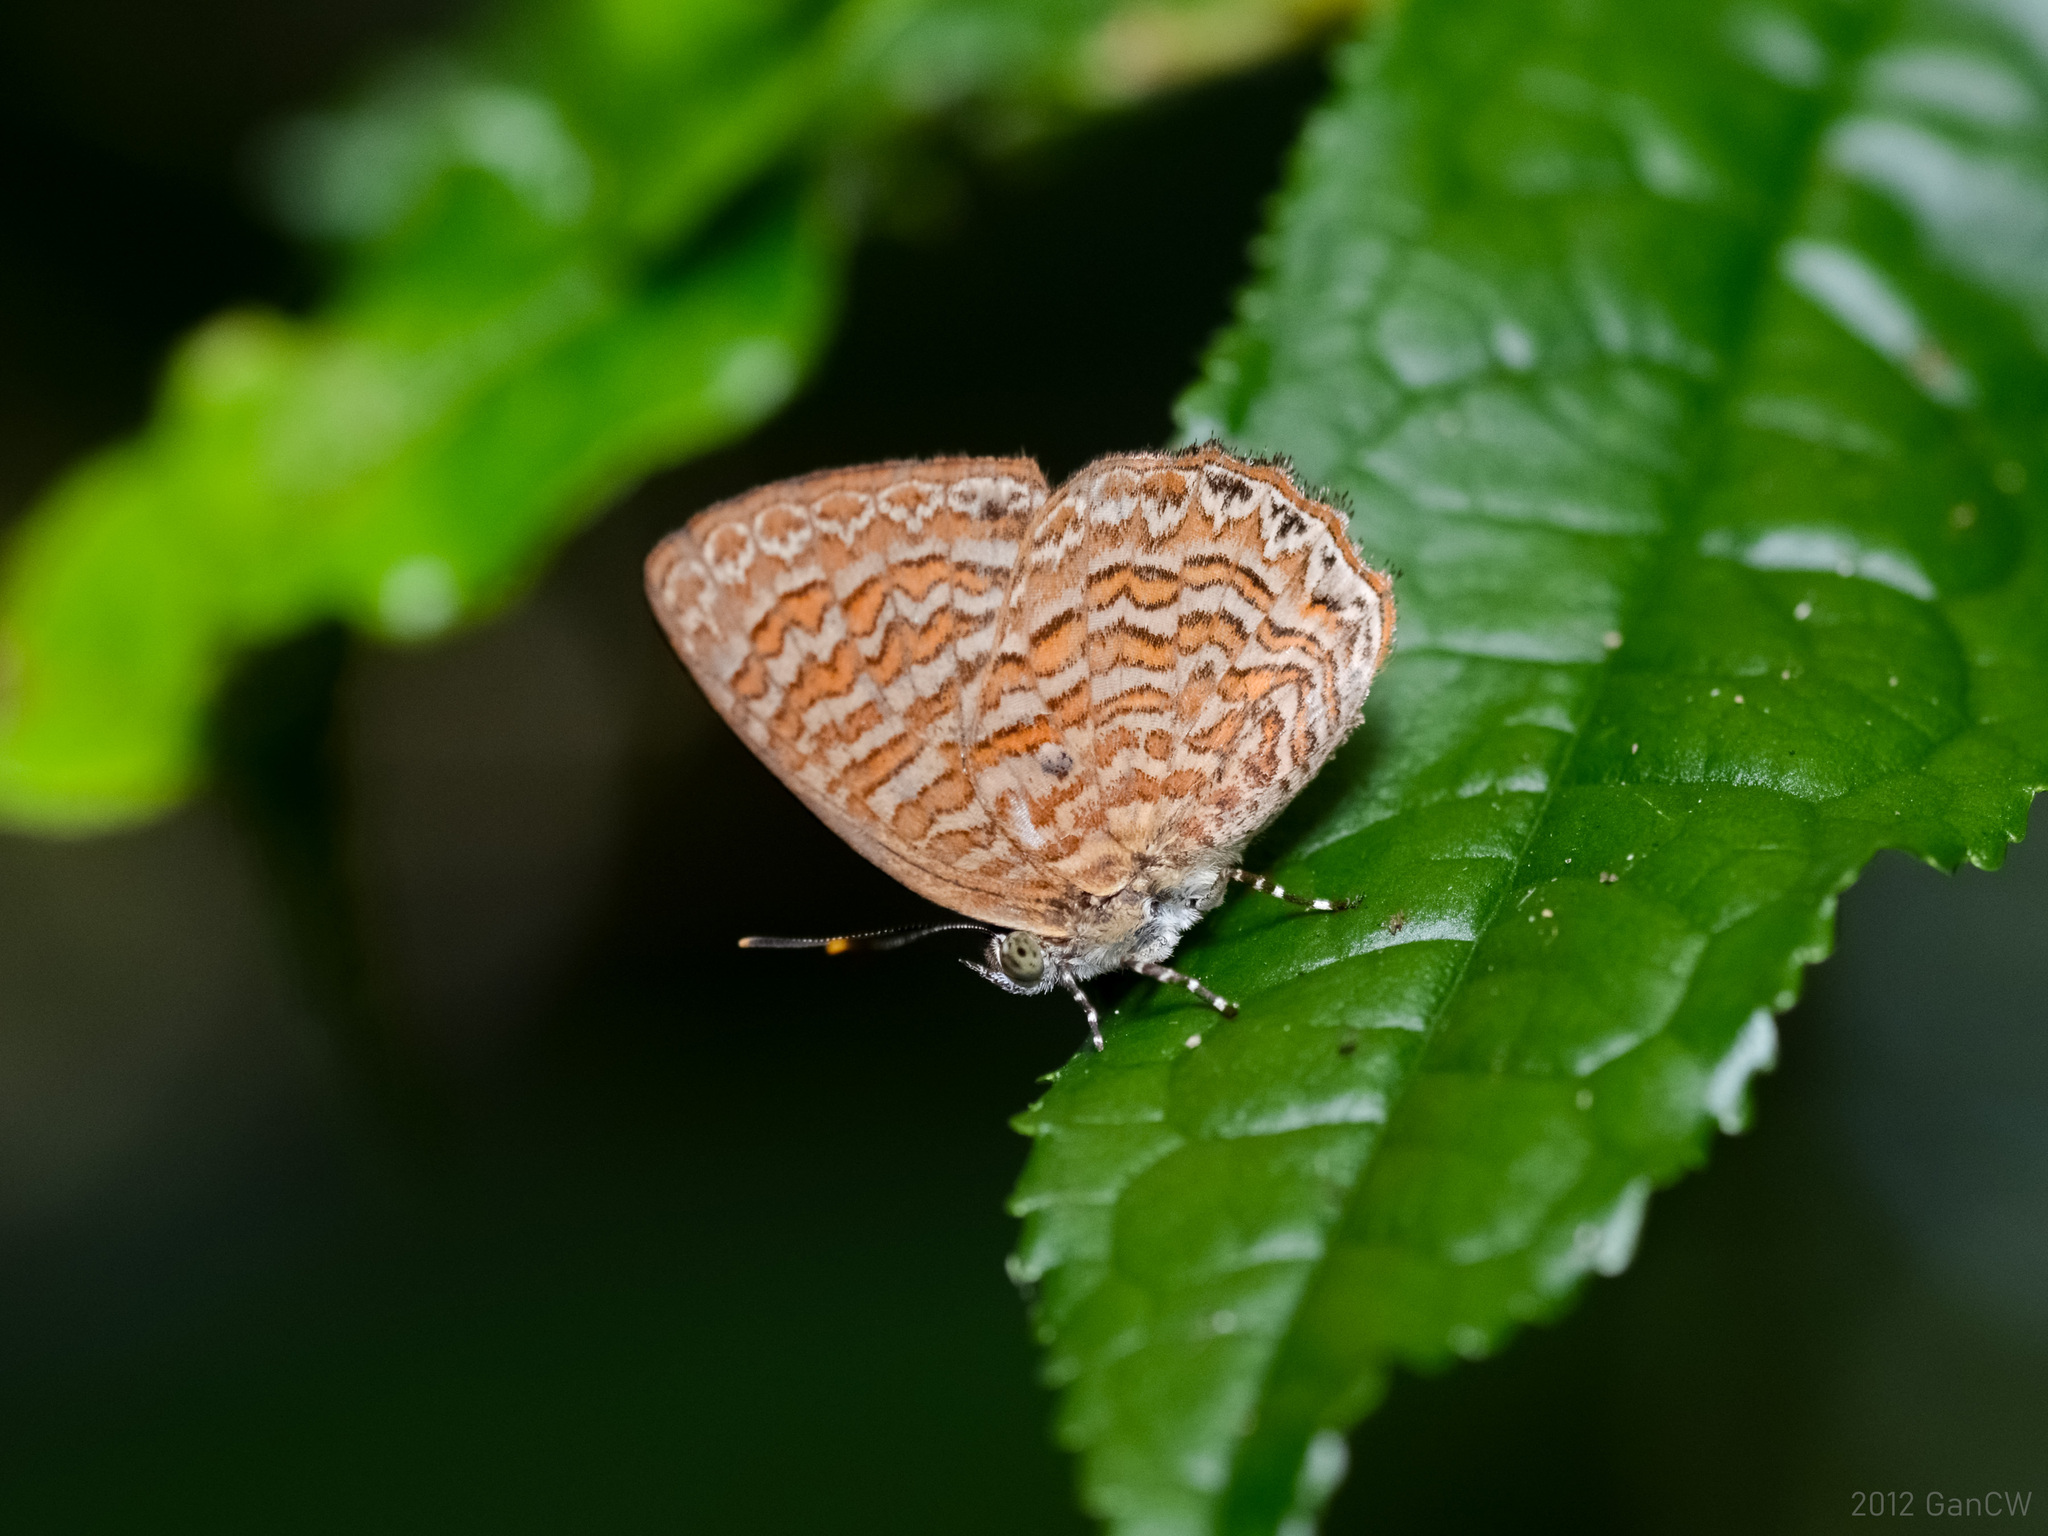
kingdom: Animalia
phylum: Arthropoda
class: Insecta
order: Lepidoptera
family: Lycaenidae
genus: Poritia
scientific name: Poritia sumatrae
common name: Sumatran gem
